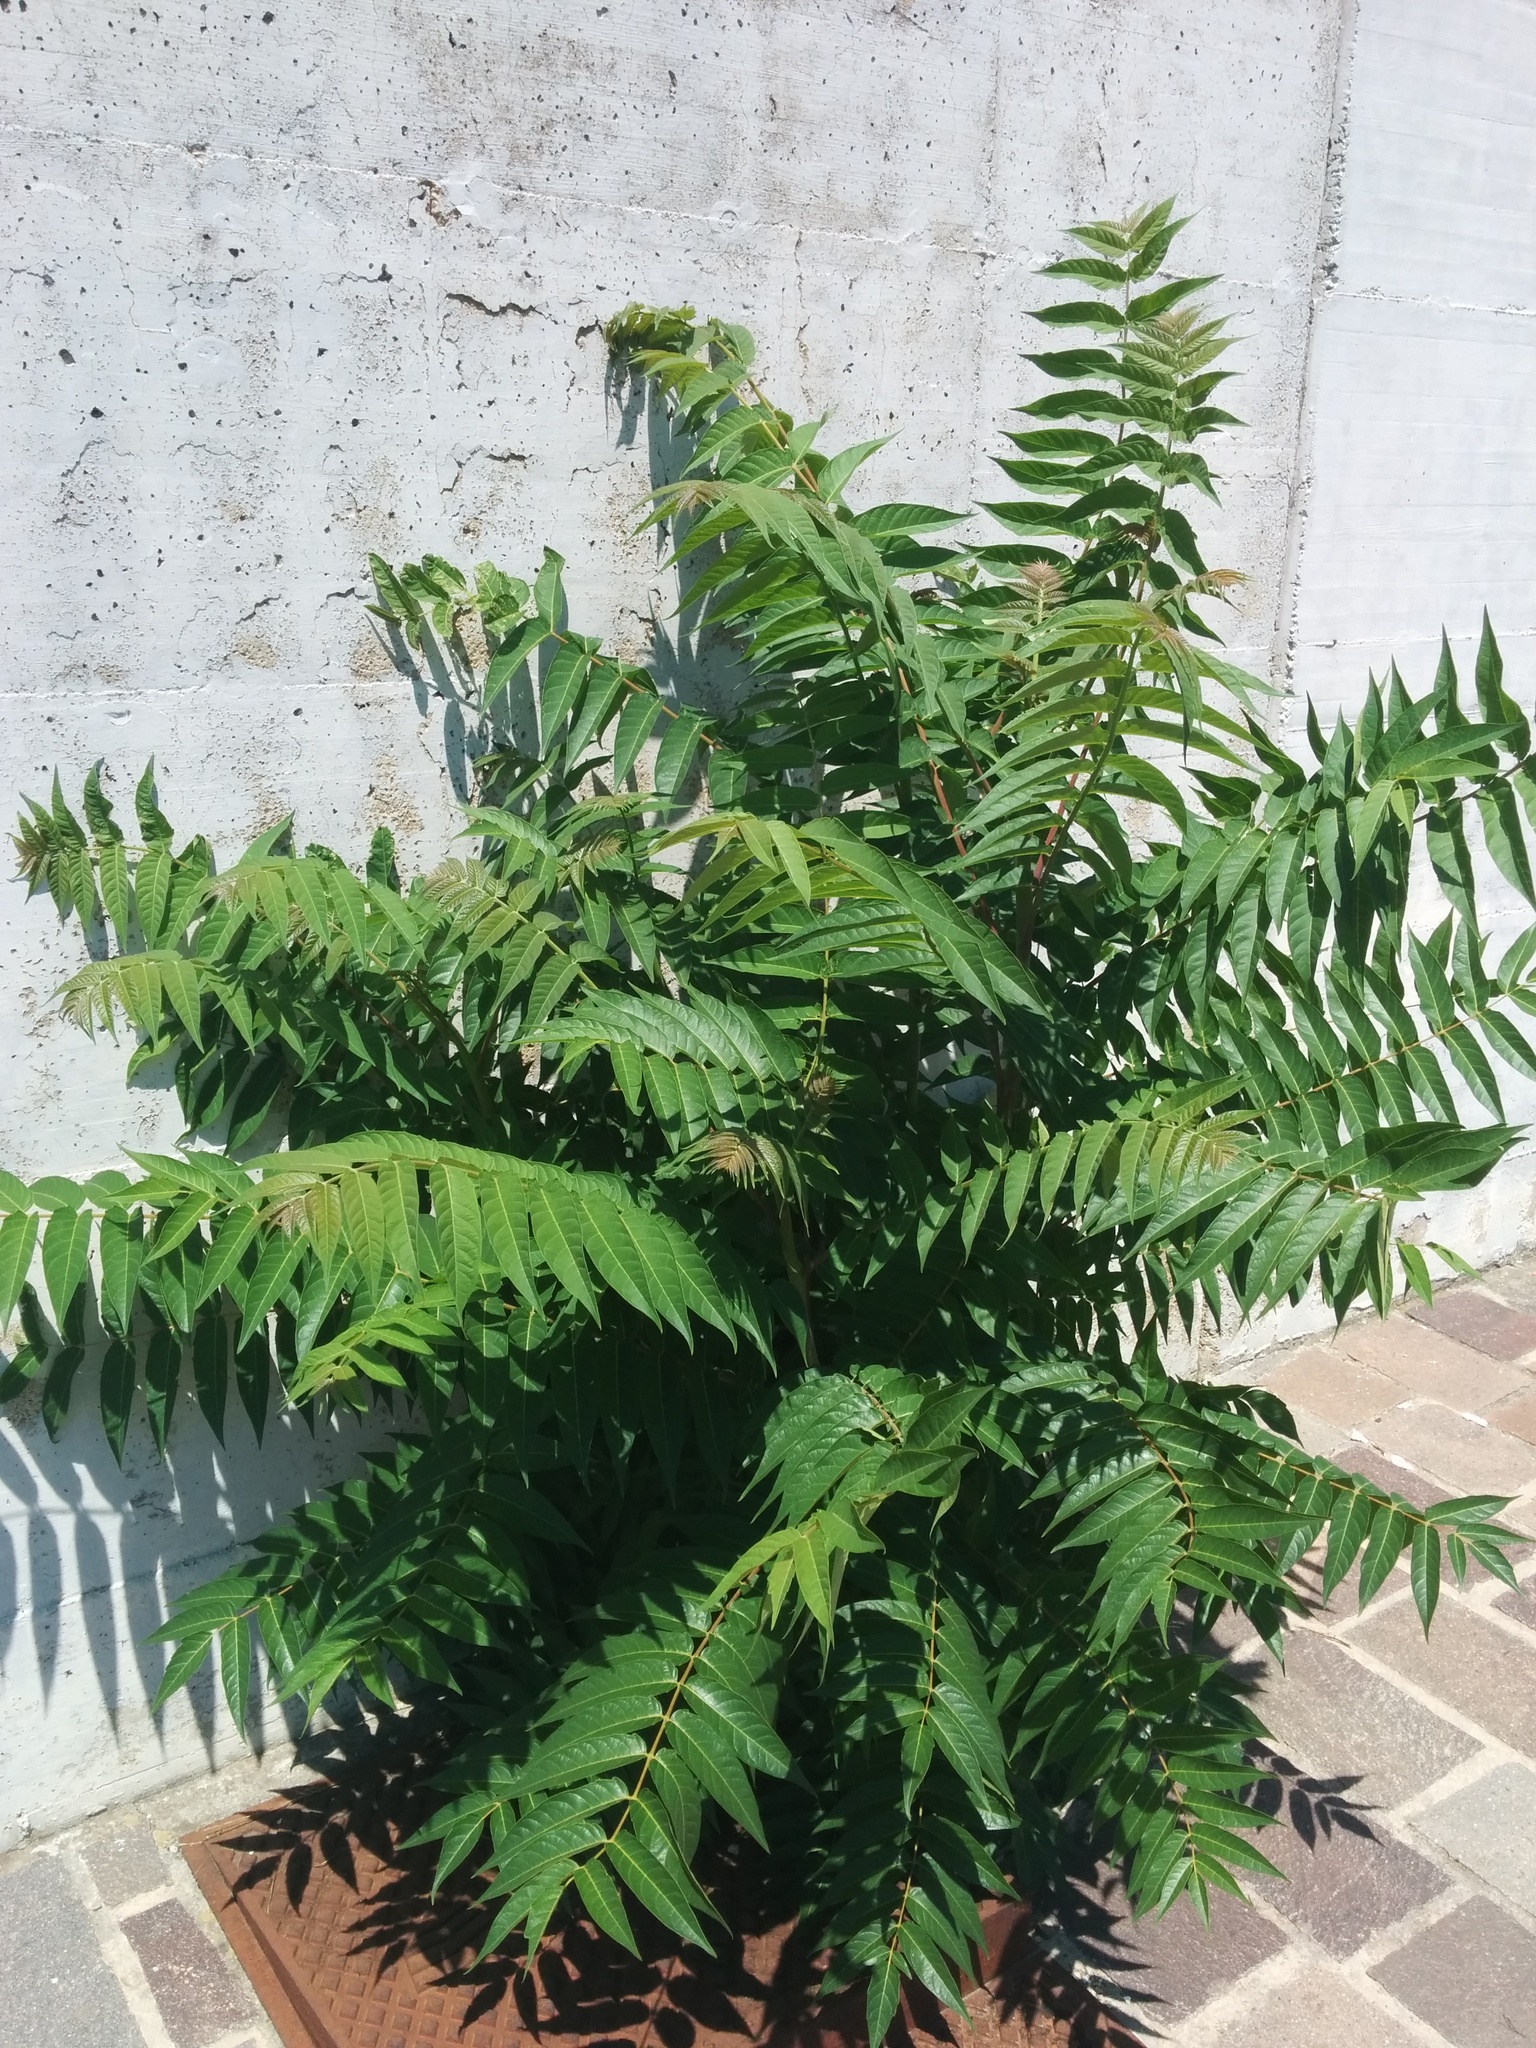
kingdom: Plantae
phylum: Tracheophyta
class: Magnoliopsida
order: Sapindales
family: Simaroubaceae
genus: Ailanthus
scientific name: Ailanthus altissima
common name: Tree-of-heaven
